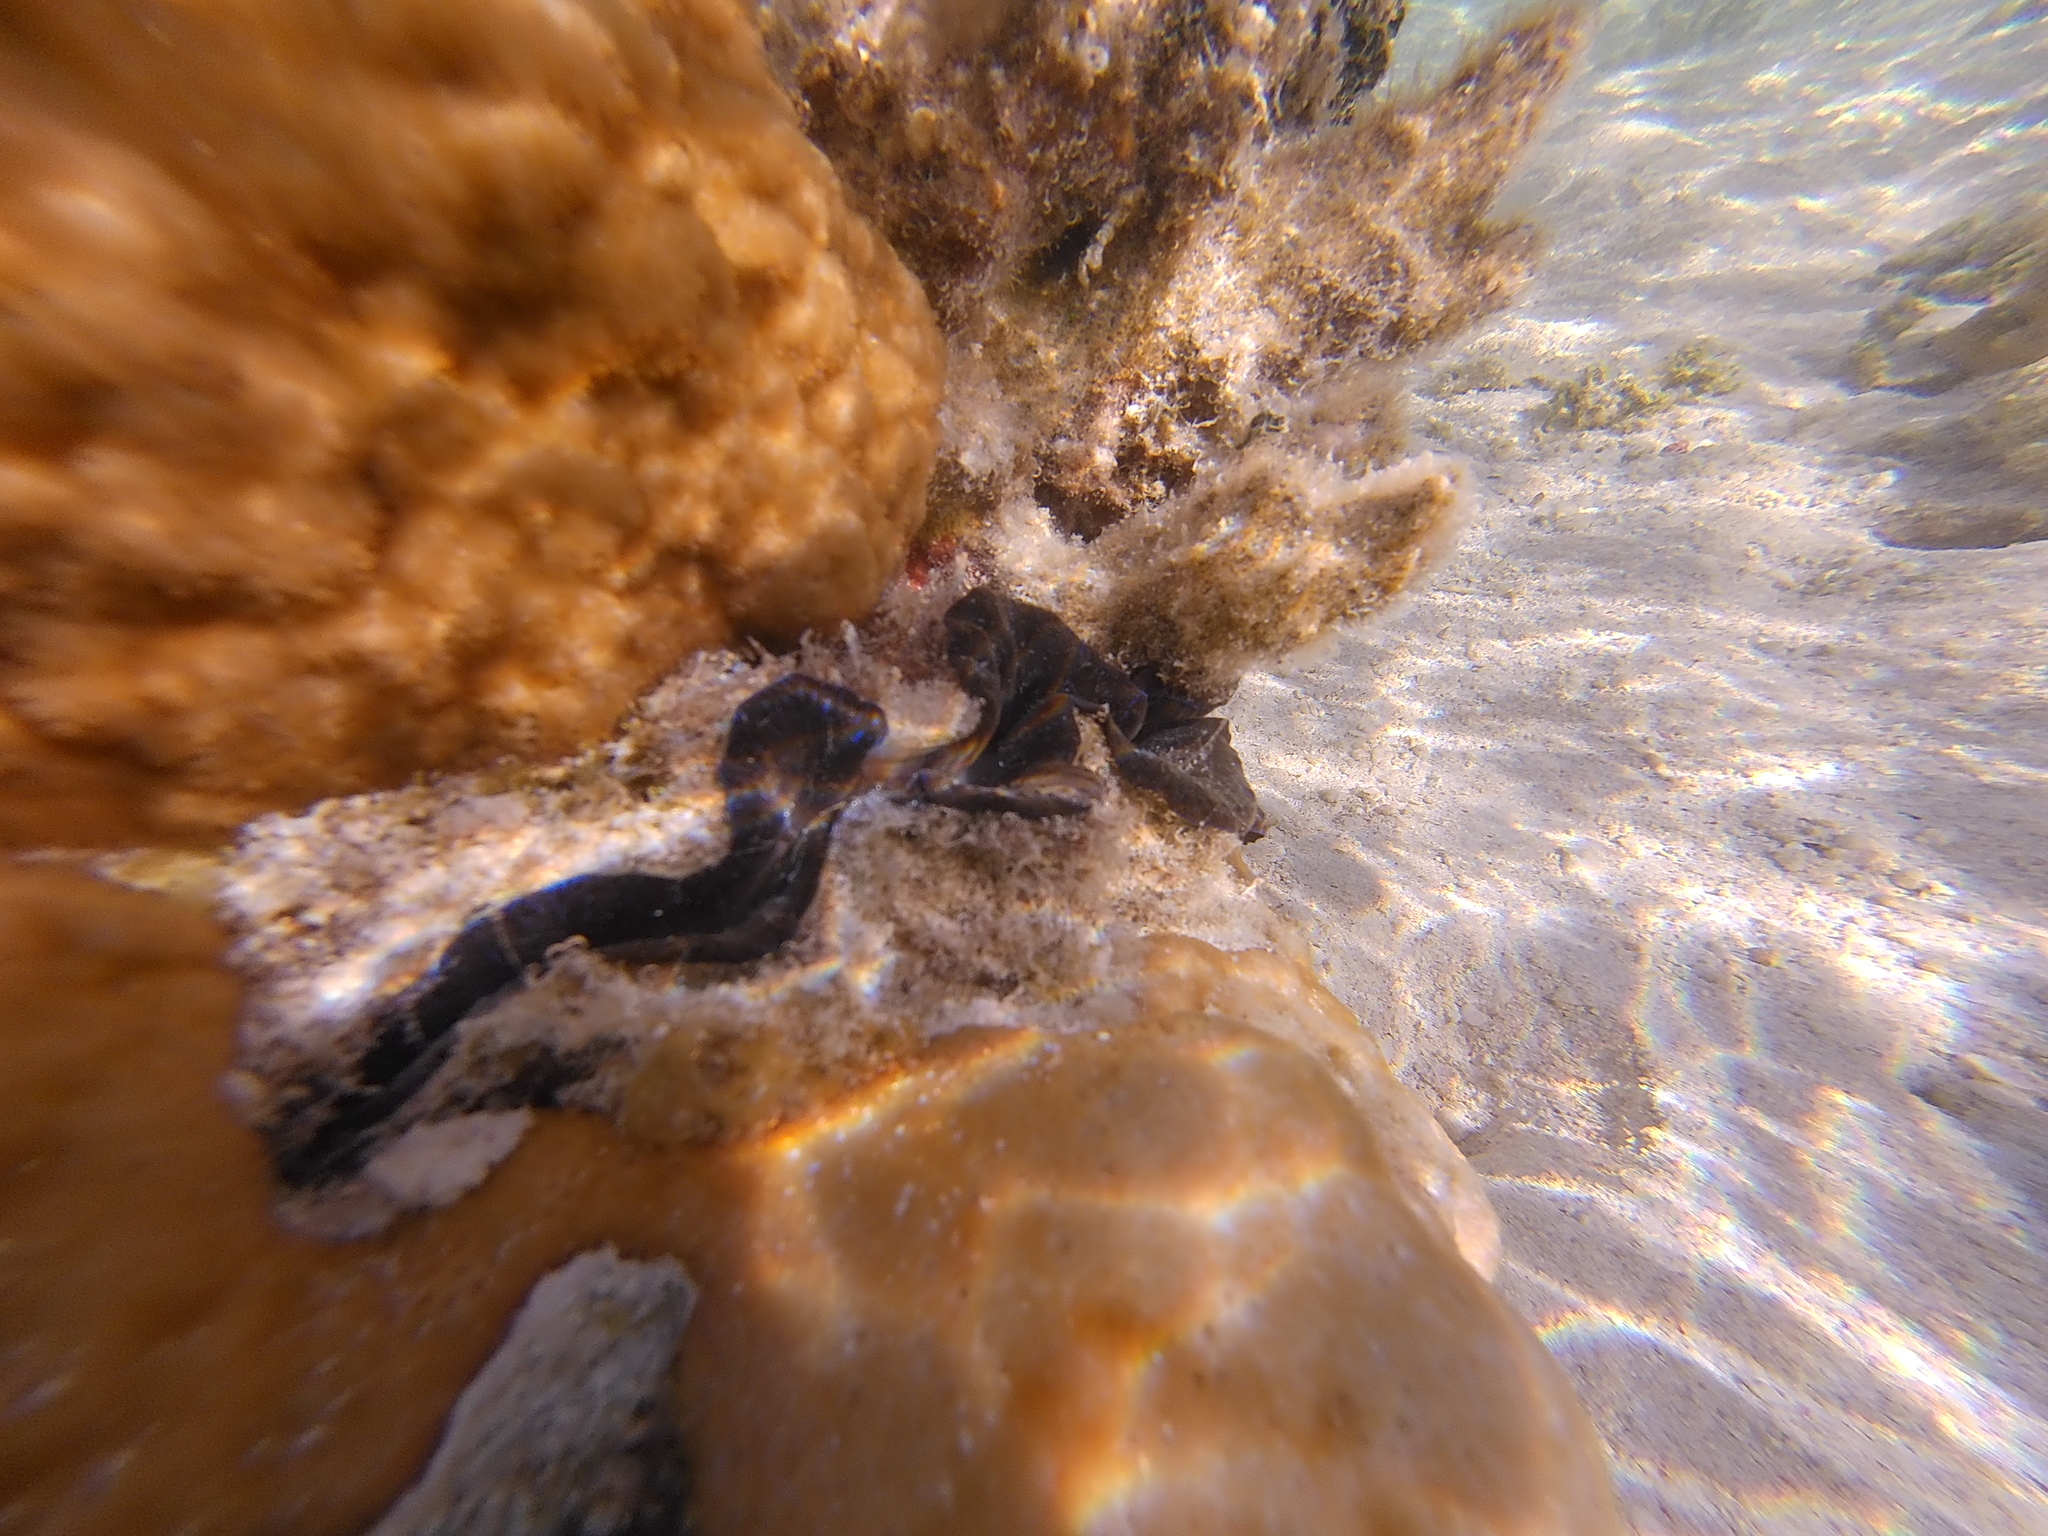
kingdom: Animalia
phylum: Mollusca
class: Bivalvia
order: Cardiida
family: Cardiidae
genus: Tridacna
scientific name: Tridacna maxima
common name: Small giant clam
